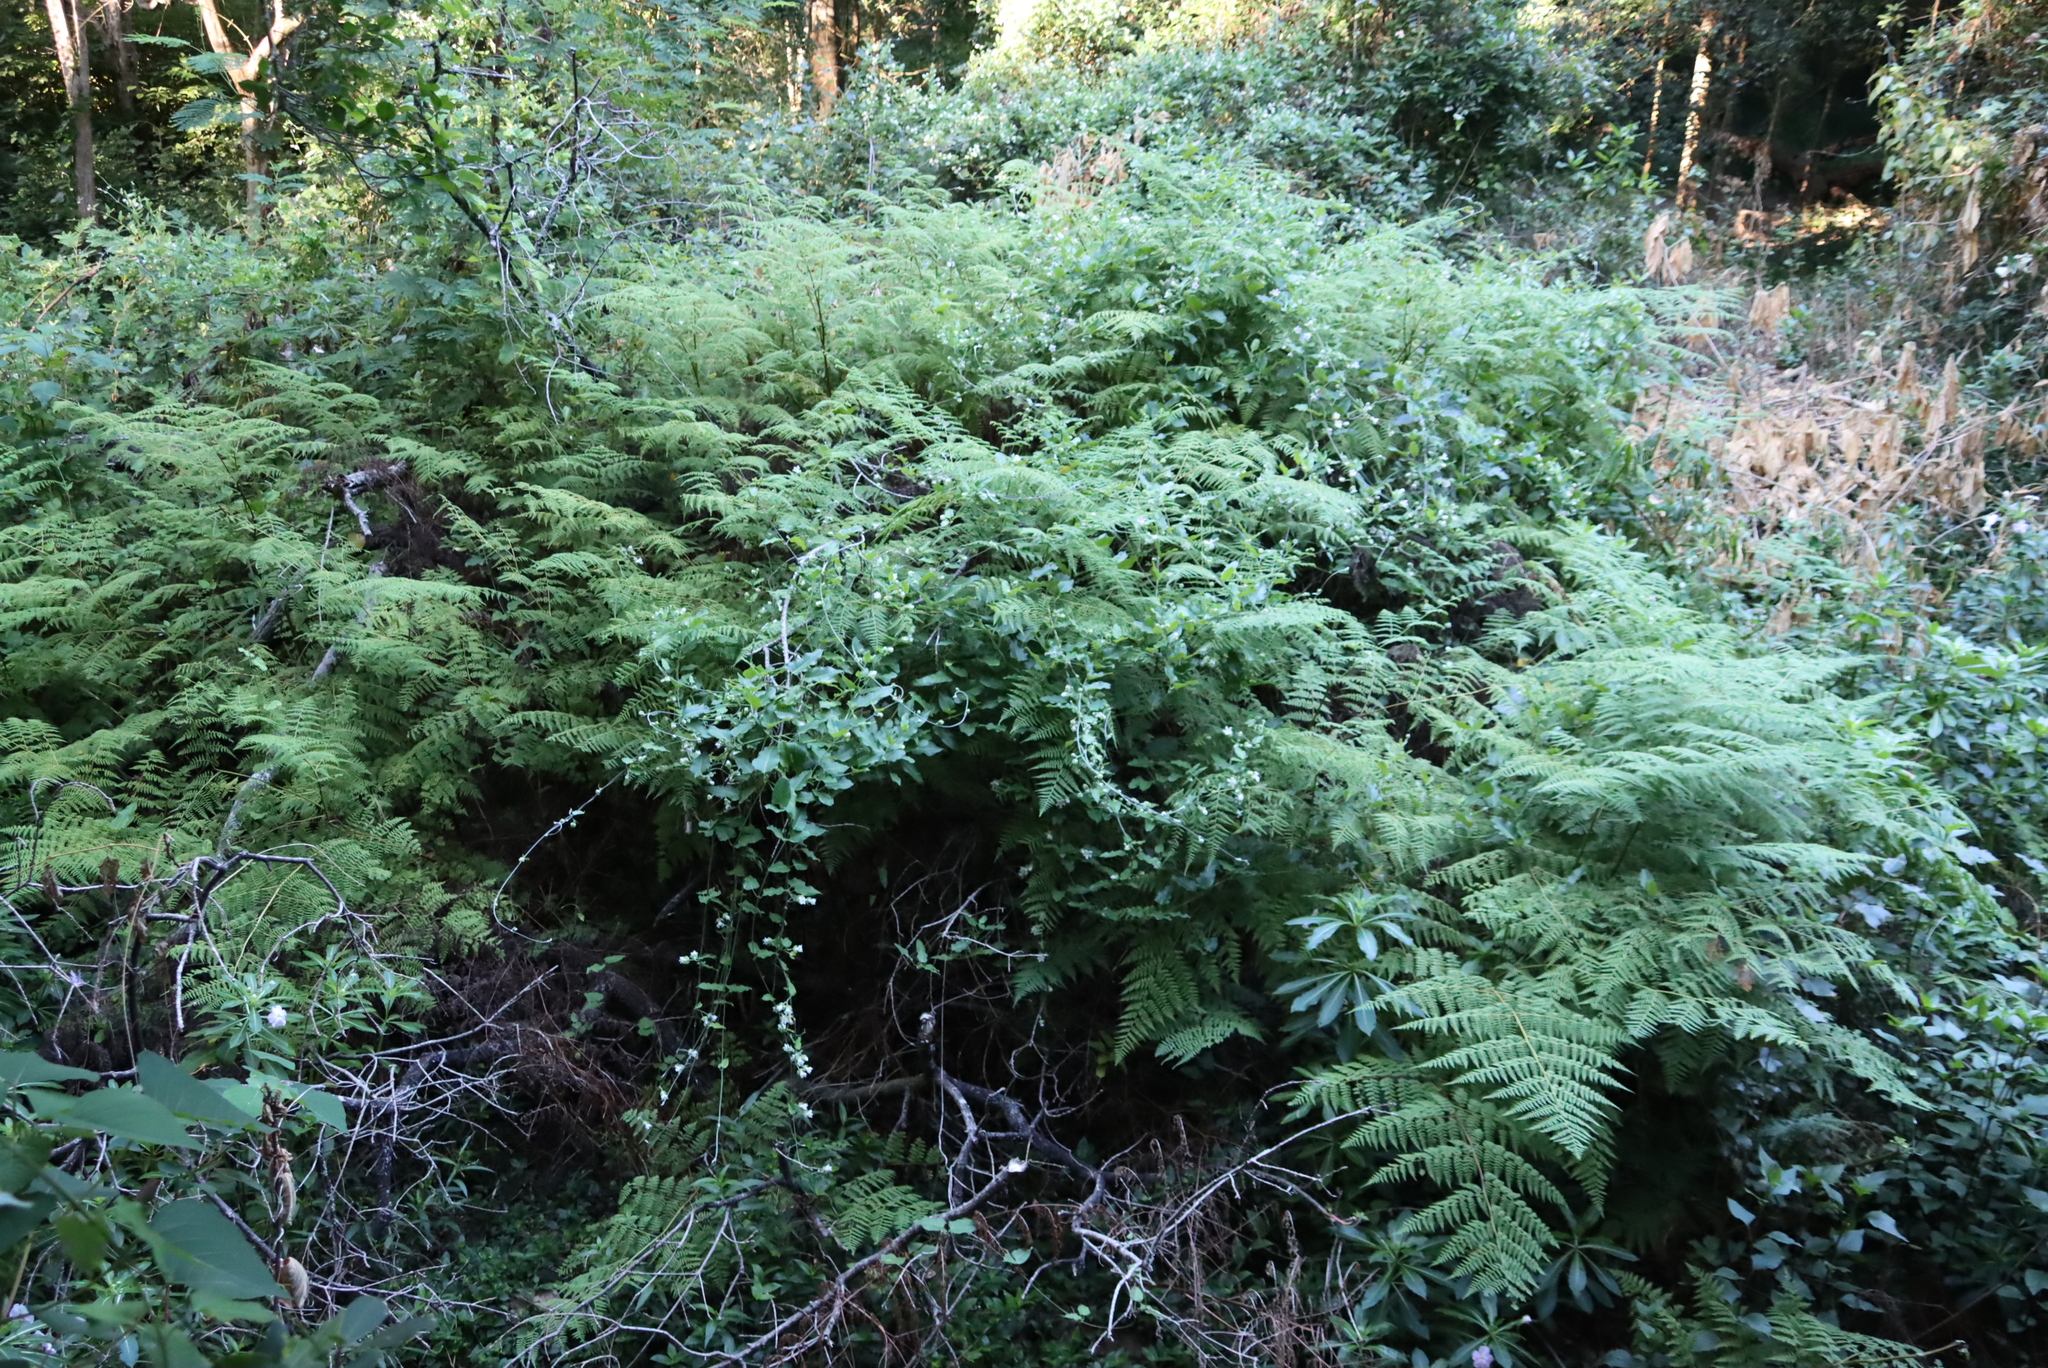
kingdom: Plantae
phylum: Tracheophyta
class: Polypodiopsida
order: Polypodiales
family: Dennstaedtiaceae
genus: Pteridium
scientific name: Pteridium aquilinum
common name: Bracken
